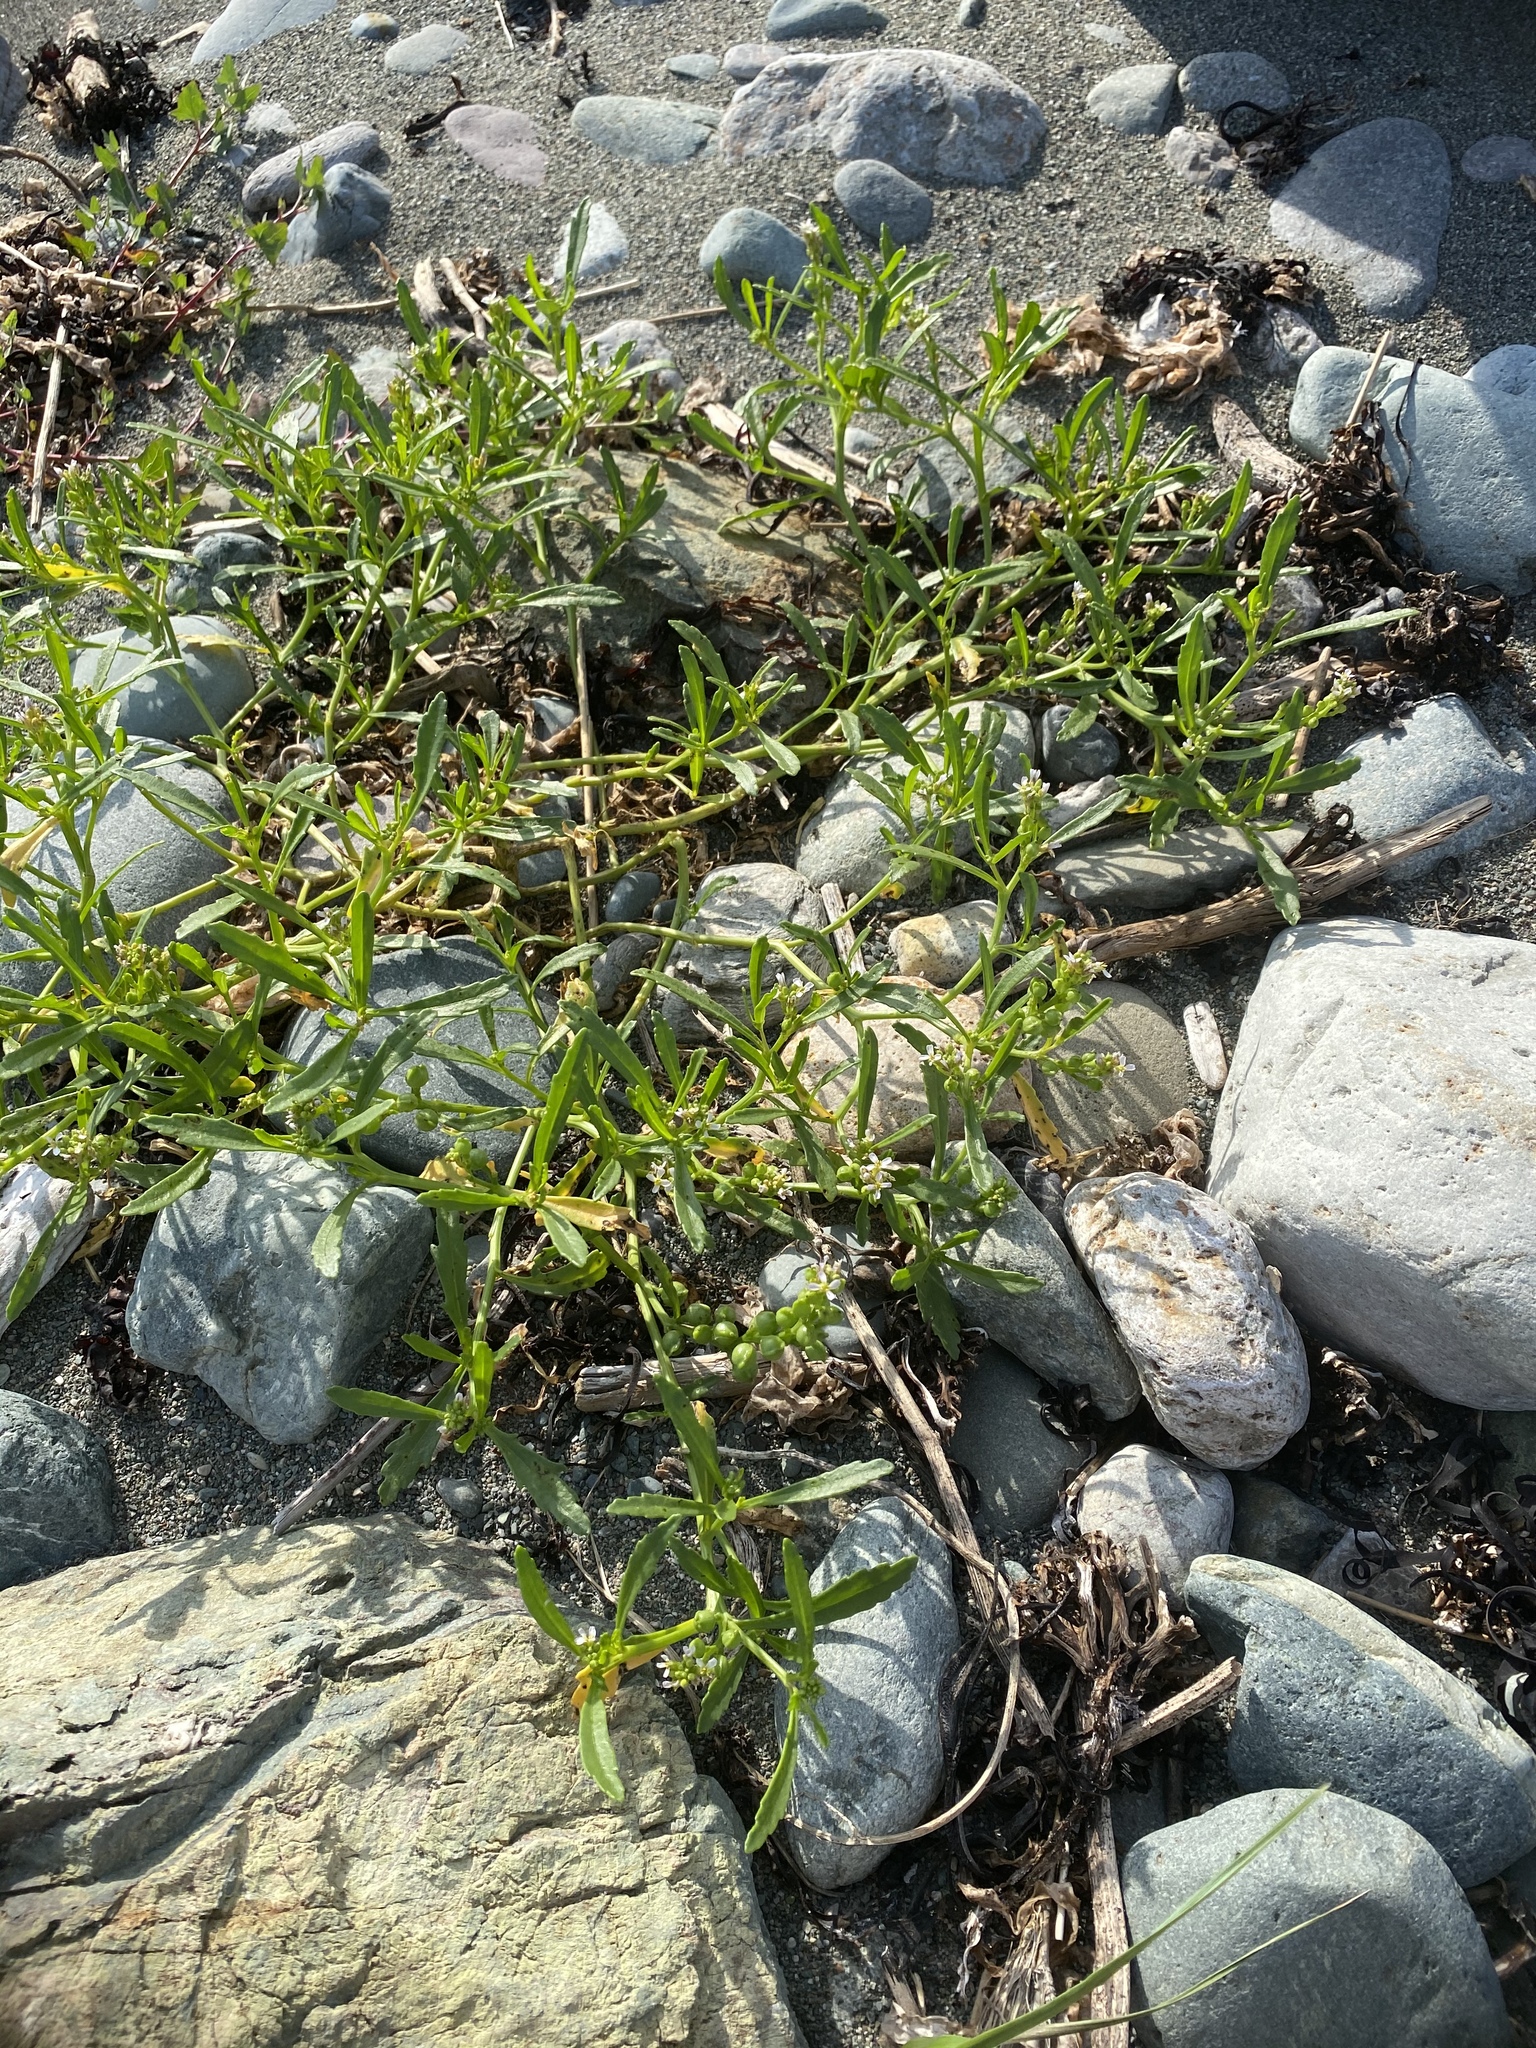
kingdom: Plantae
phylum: Tracheophyta
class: Magnoliopsida
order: Brassicales
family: Brassicaceae
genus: Cakile
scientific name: Cakile edentula
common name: American sea rocket
